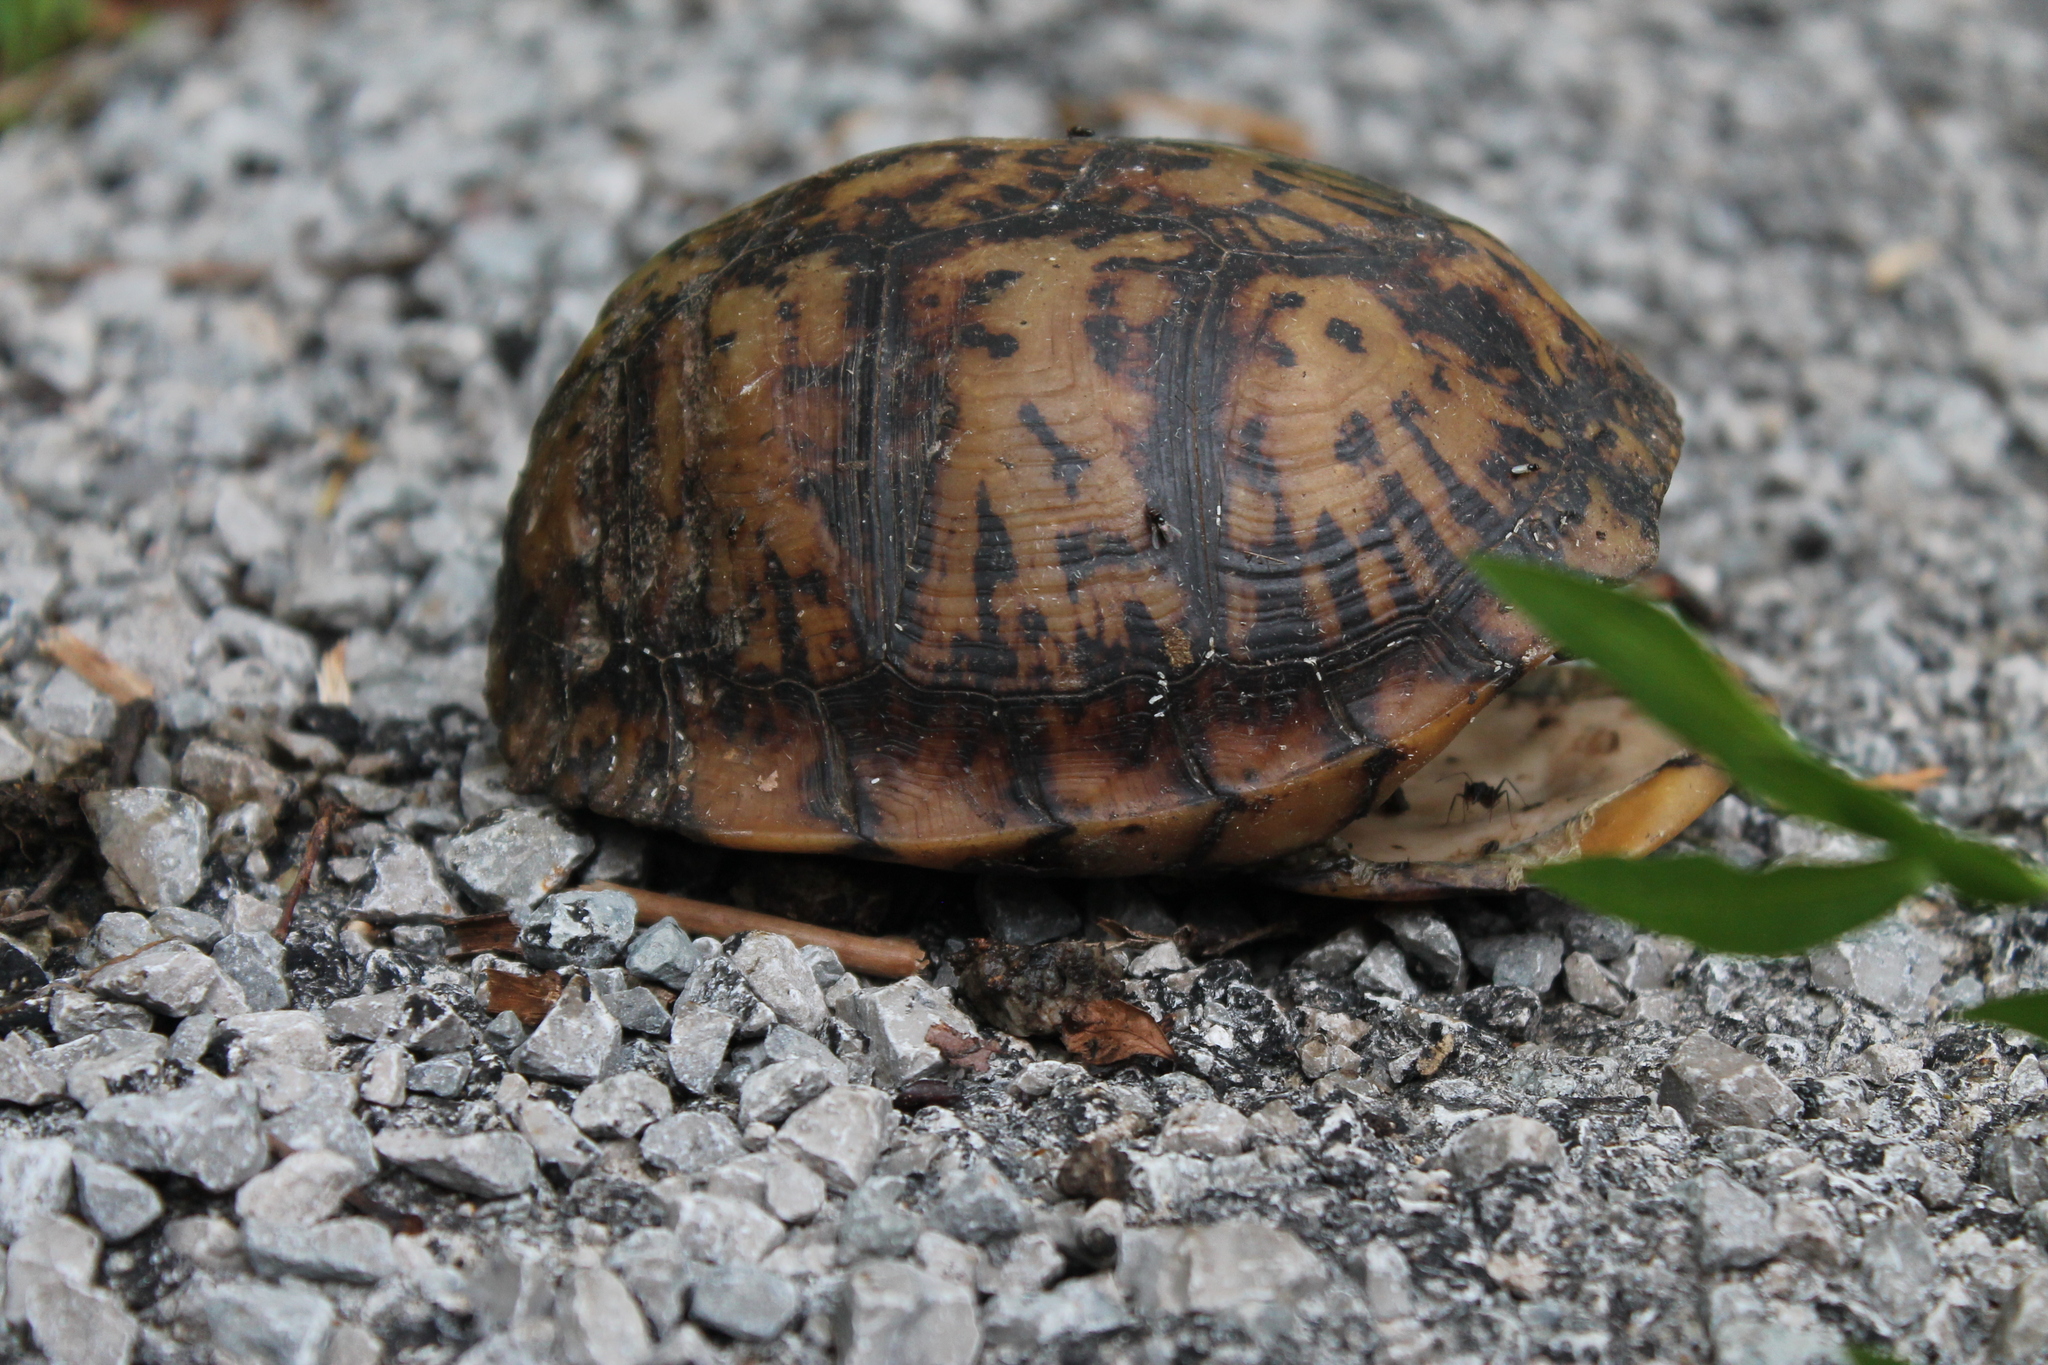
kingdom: Animalia
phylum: Chordata
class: Testudines
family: Emydidae
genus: Terrapene
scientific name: Terrapene carolina
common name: Common box turtle
